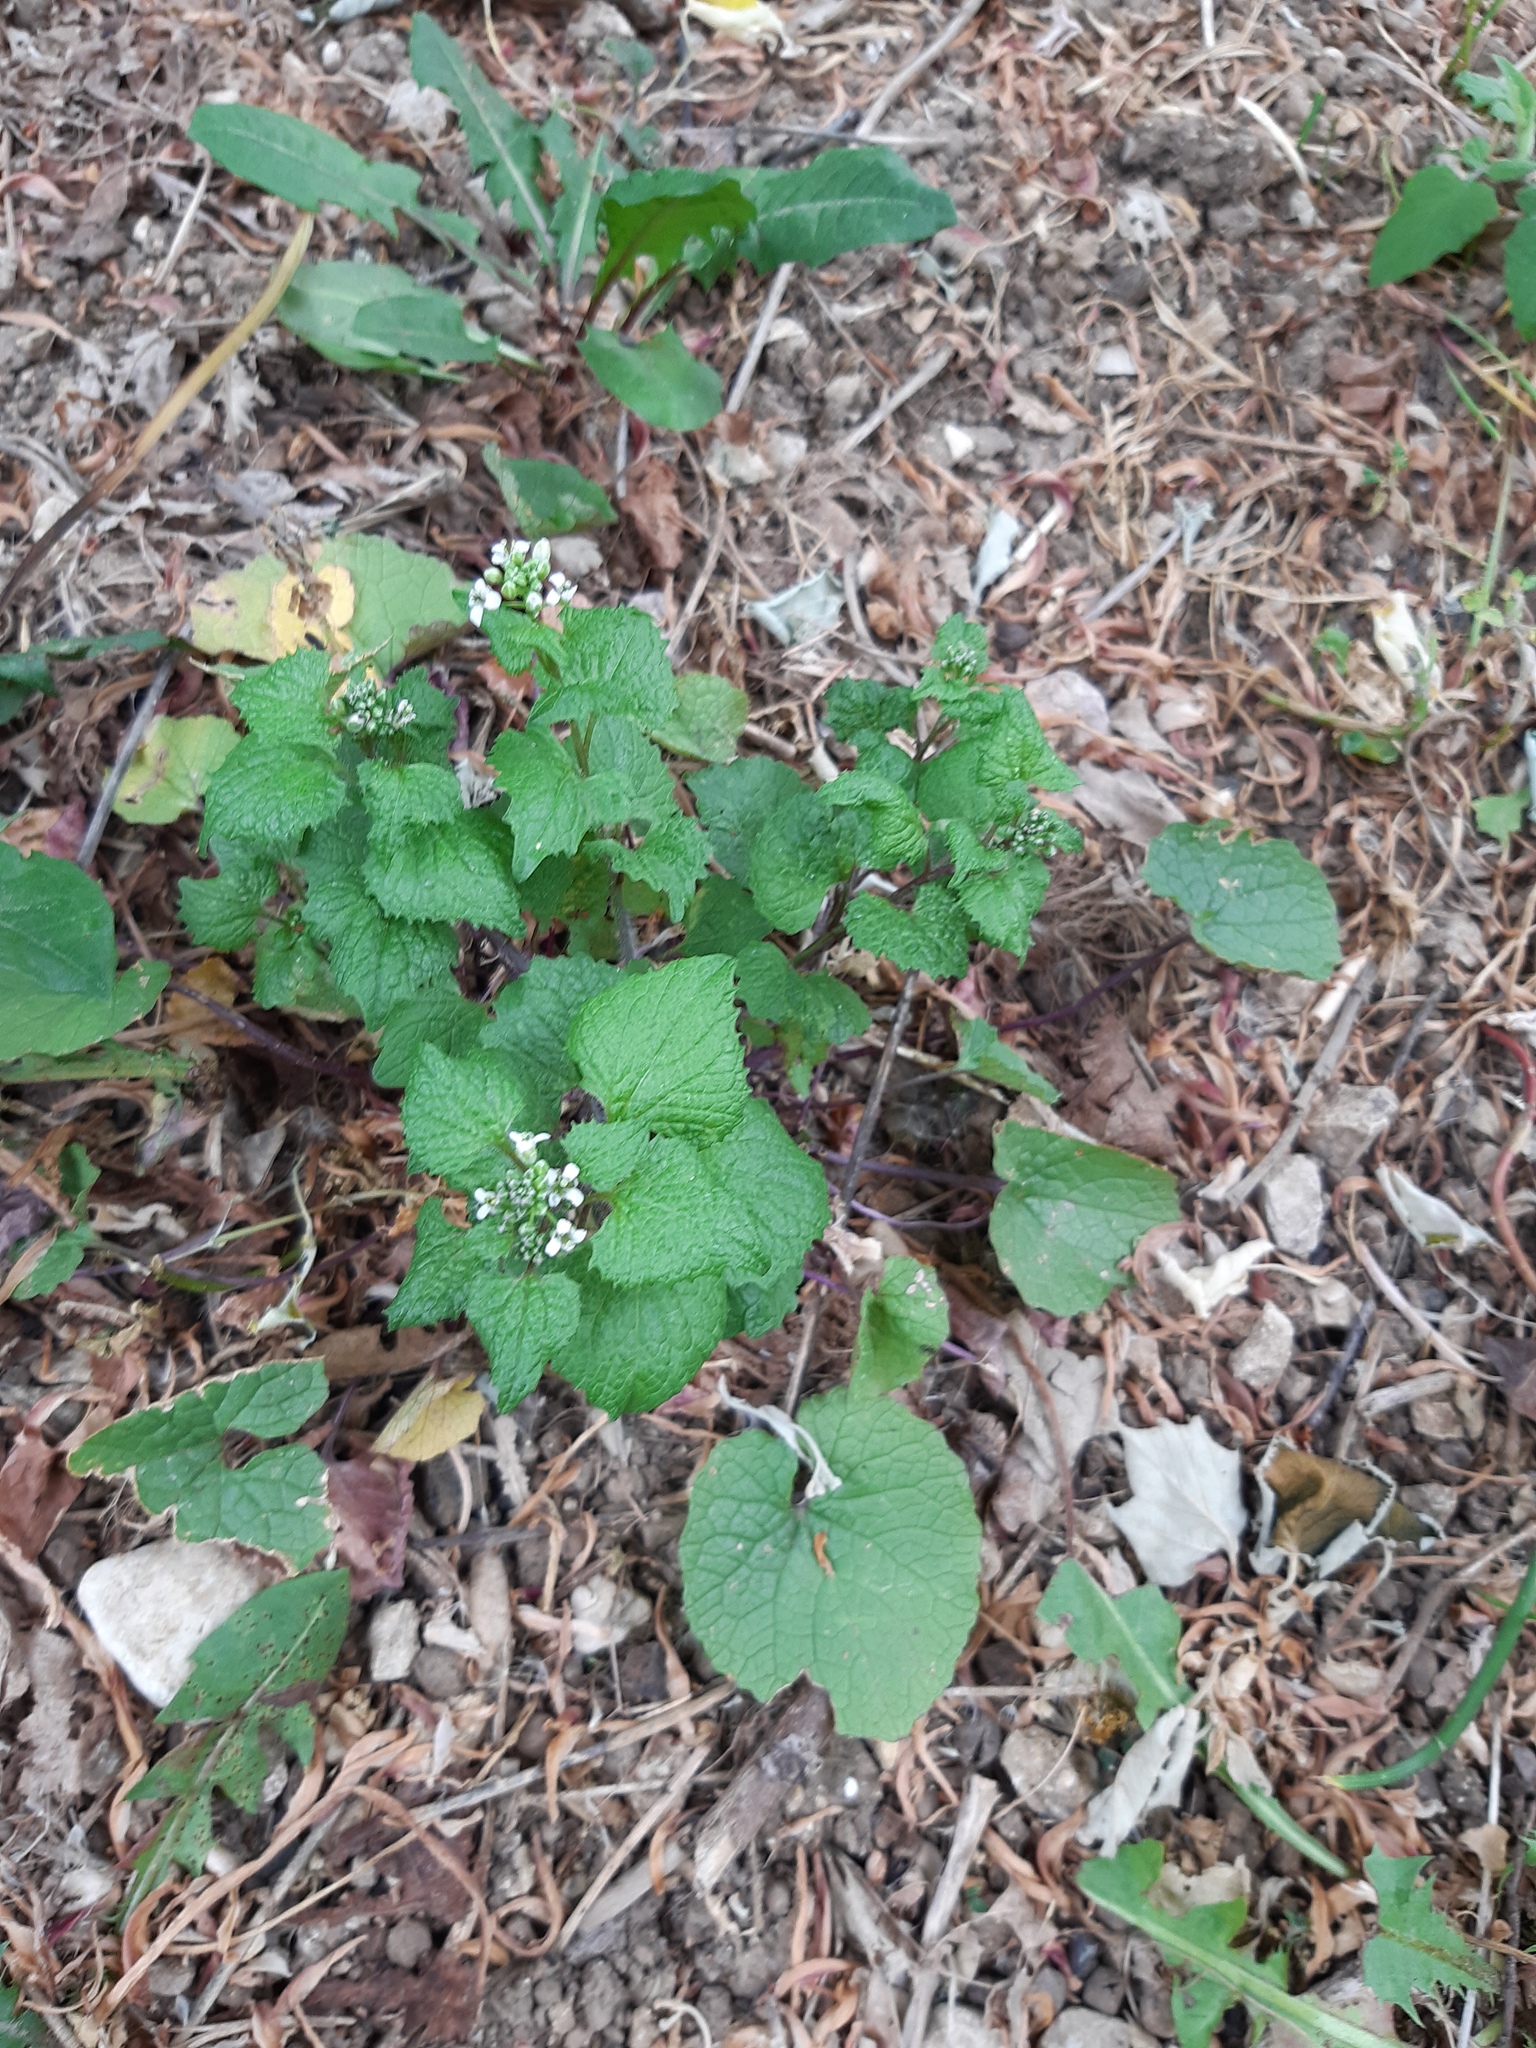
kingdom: Plantae
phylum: Tracheophyta
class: Magnoliopsida
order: Brassicales
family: Brassicaceae
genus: Alliaria
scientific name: Alliaria petiolata
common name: Garlic mustard
